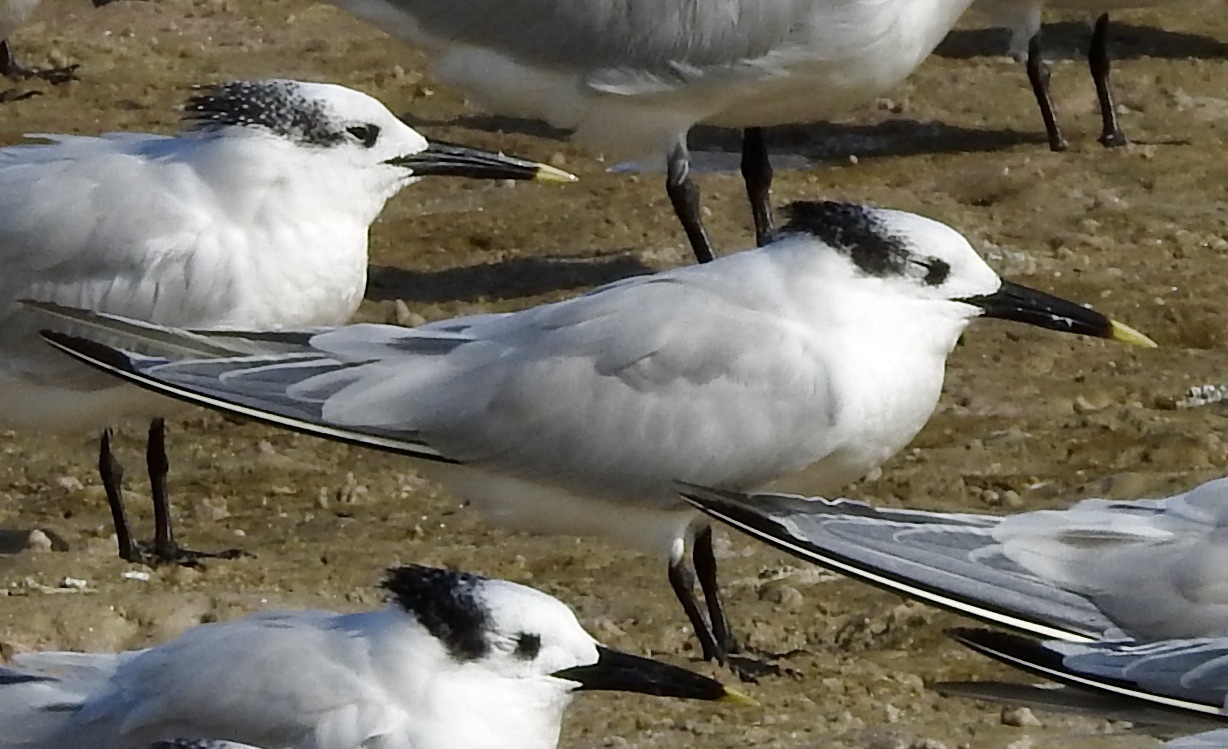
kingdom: Animalia
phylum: Chordata
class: Aves
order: Charadriiformes
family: Laridae
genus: Thalasseus
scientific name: Thalasseus sandvicensis
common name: Sandwich tern
